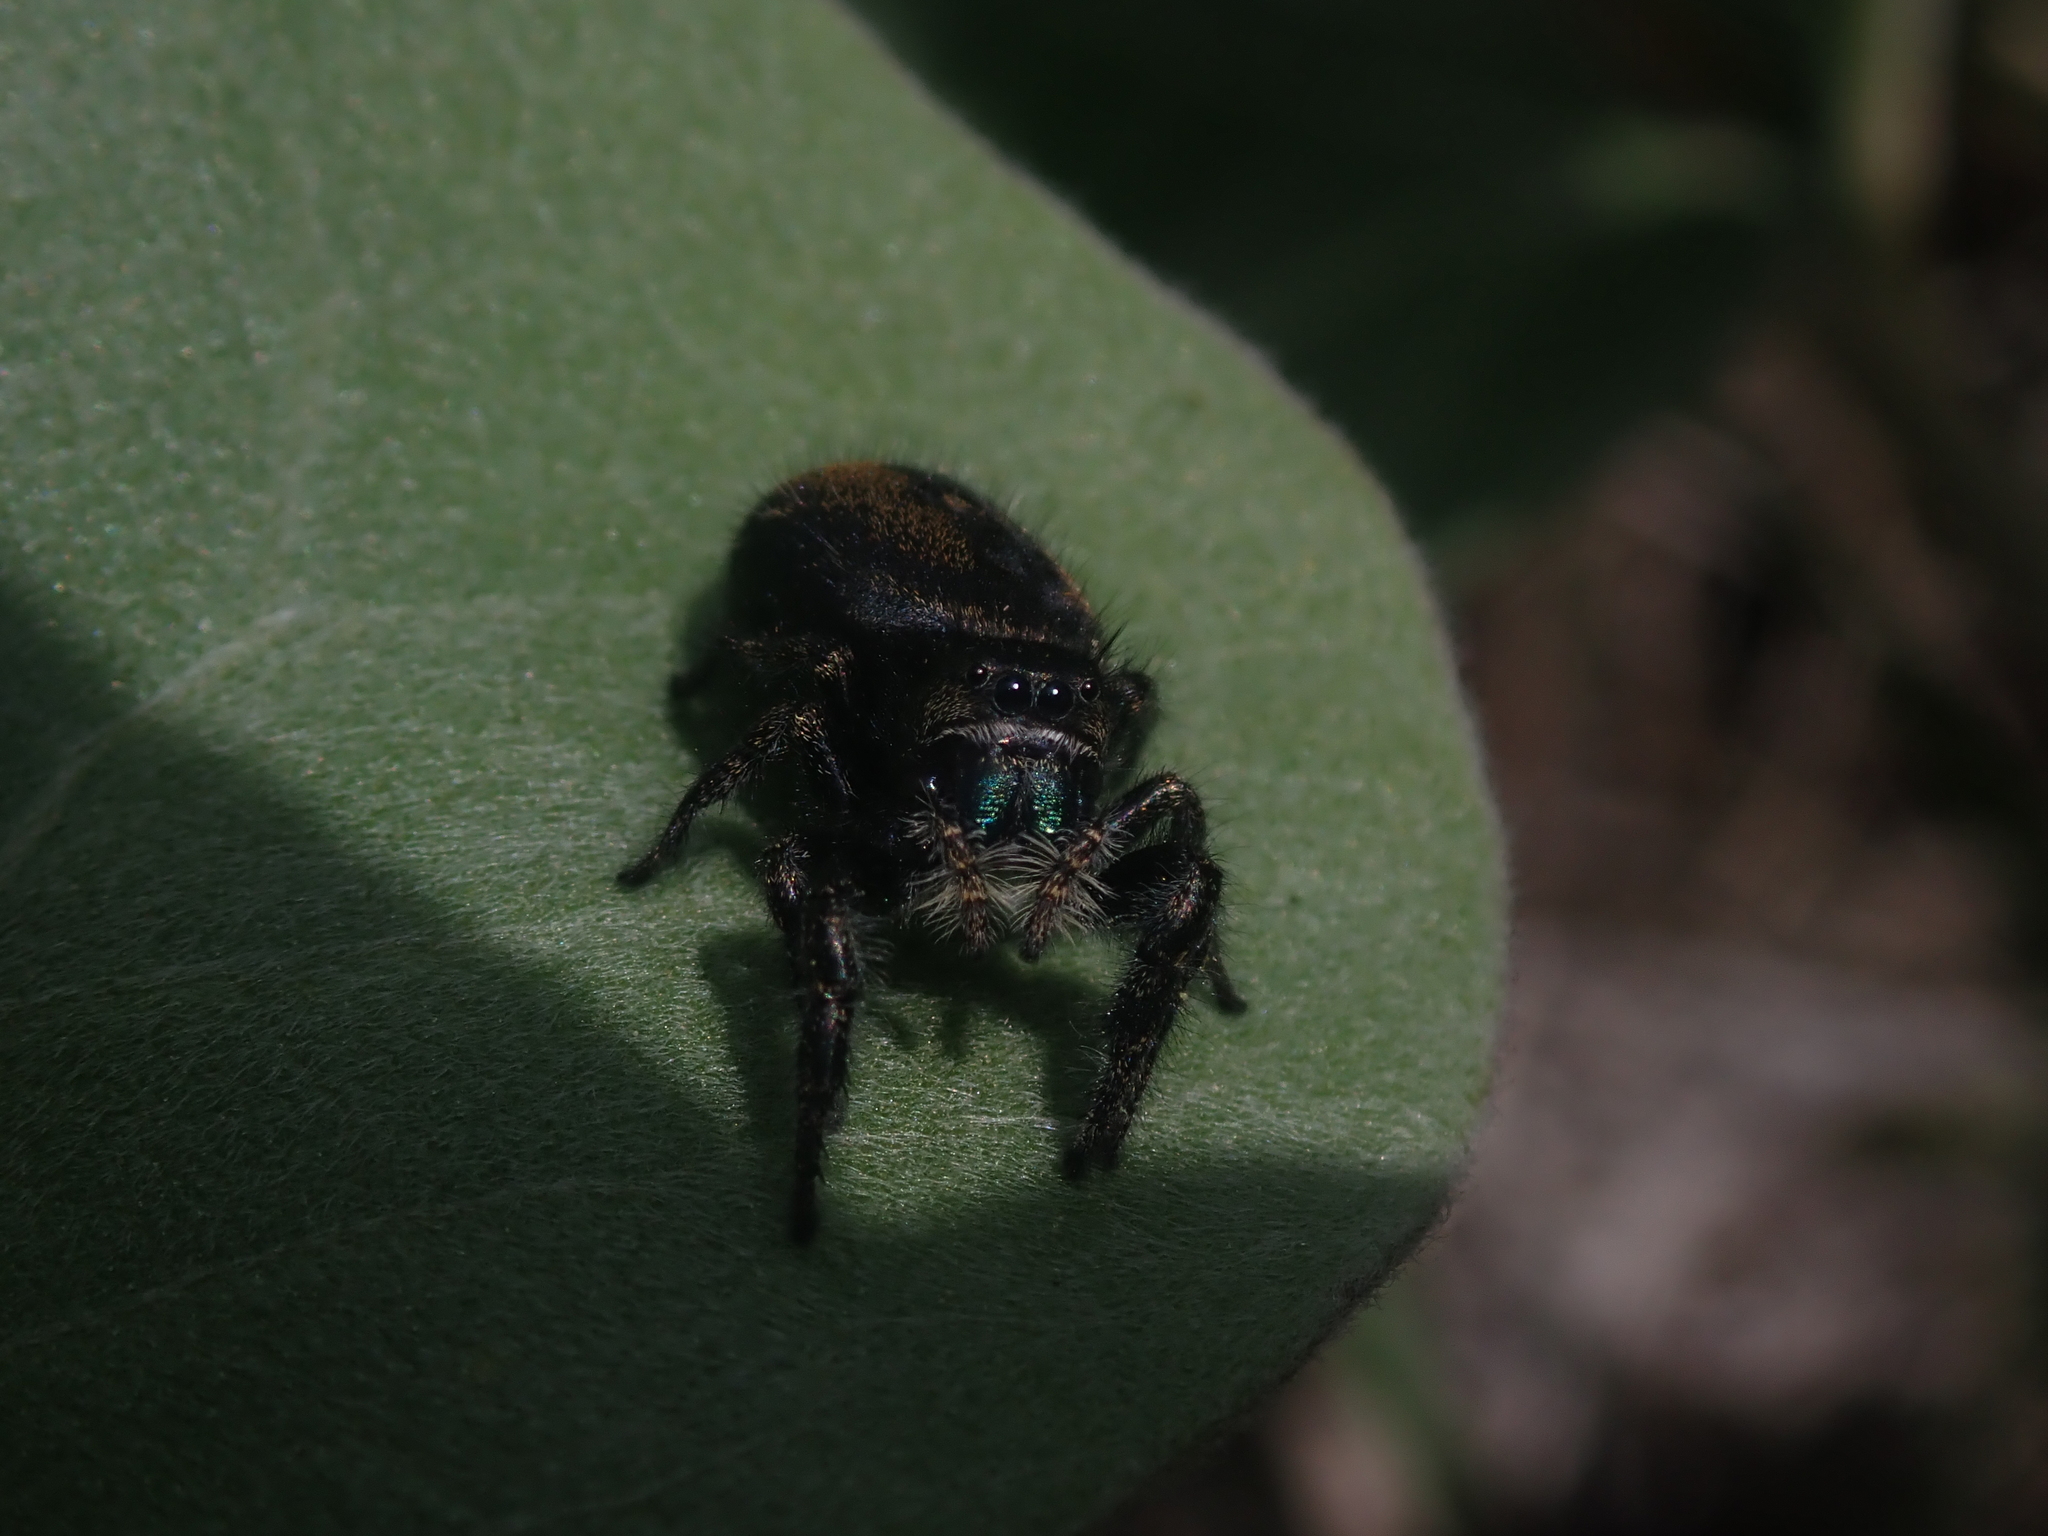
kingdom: Animalia
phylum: Arthropoda
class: Arachnida
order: Araneae
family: Salticidae
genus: Phidippus
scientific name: Phidippus johnsoni
